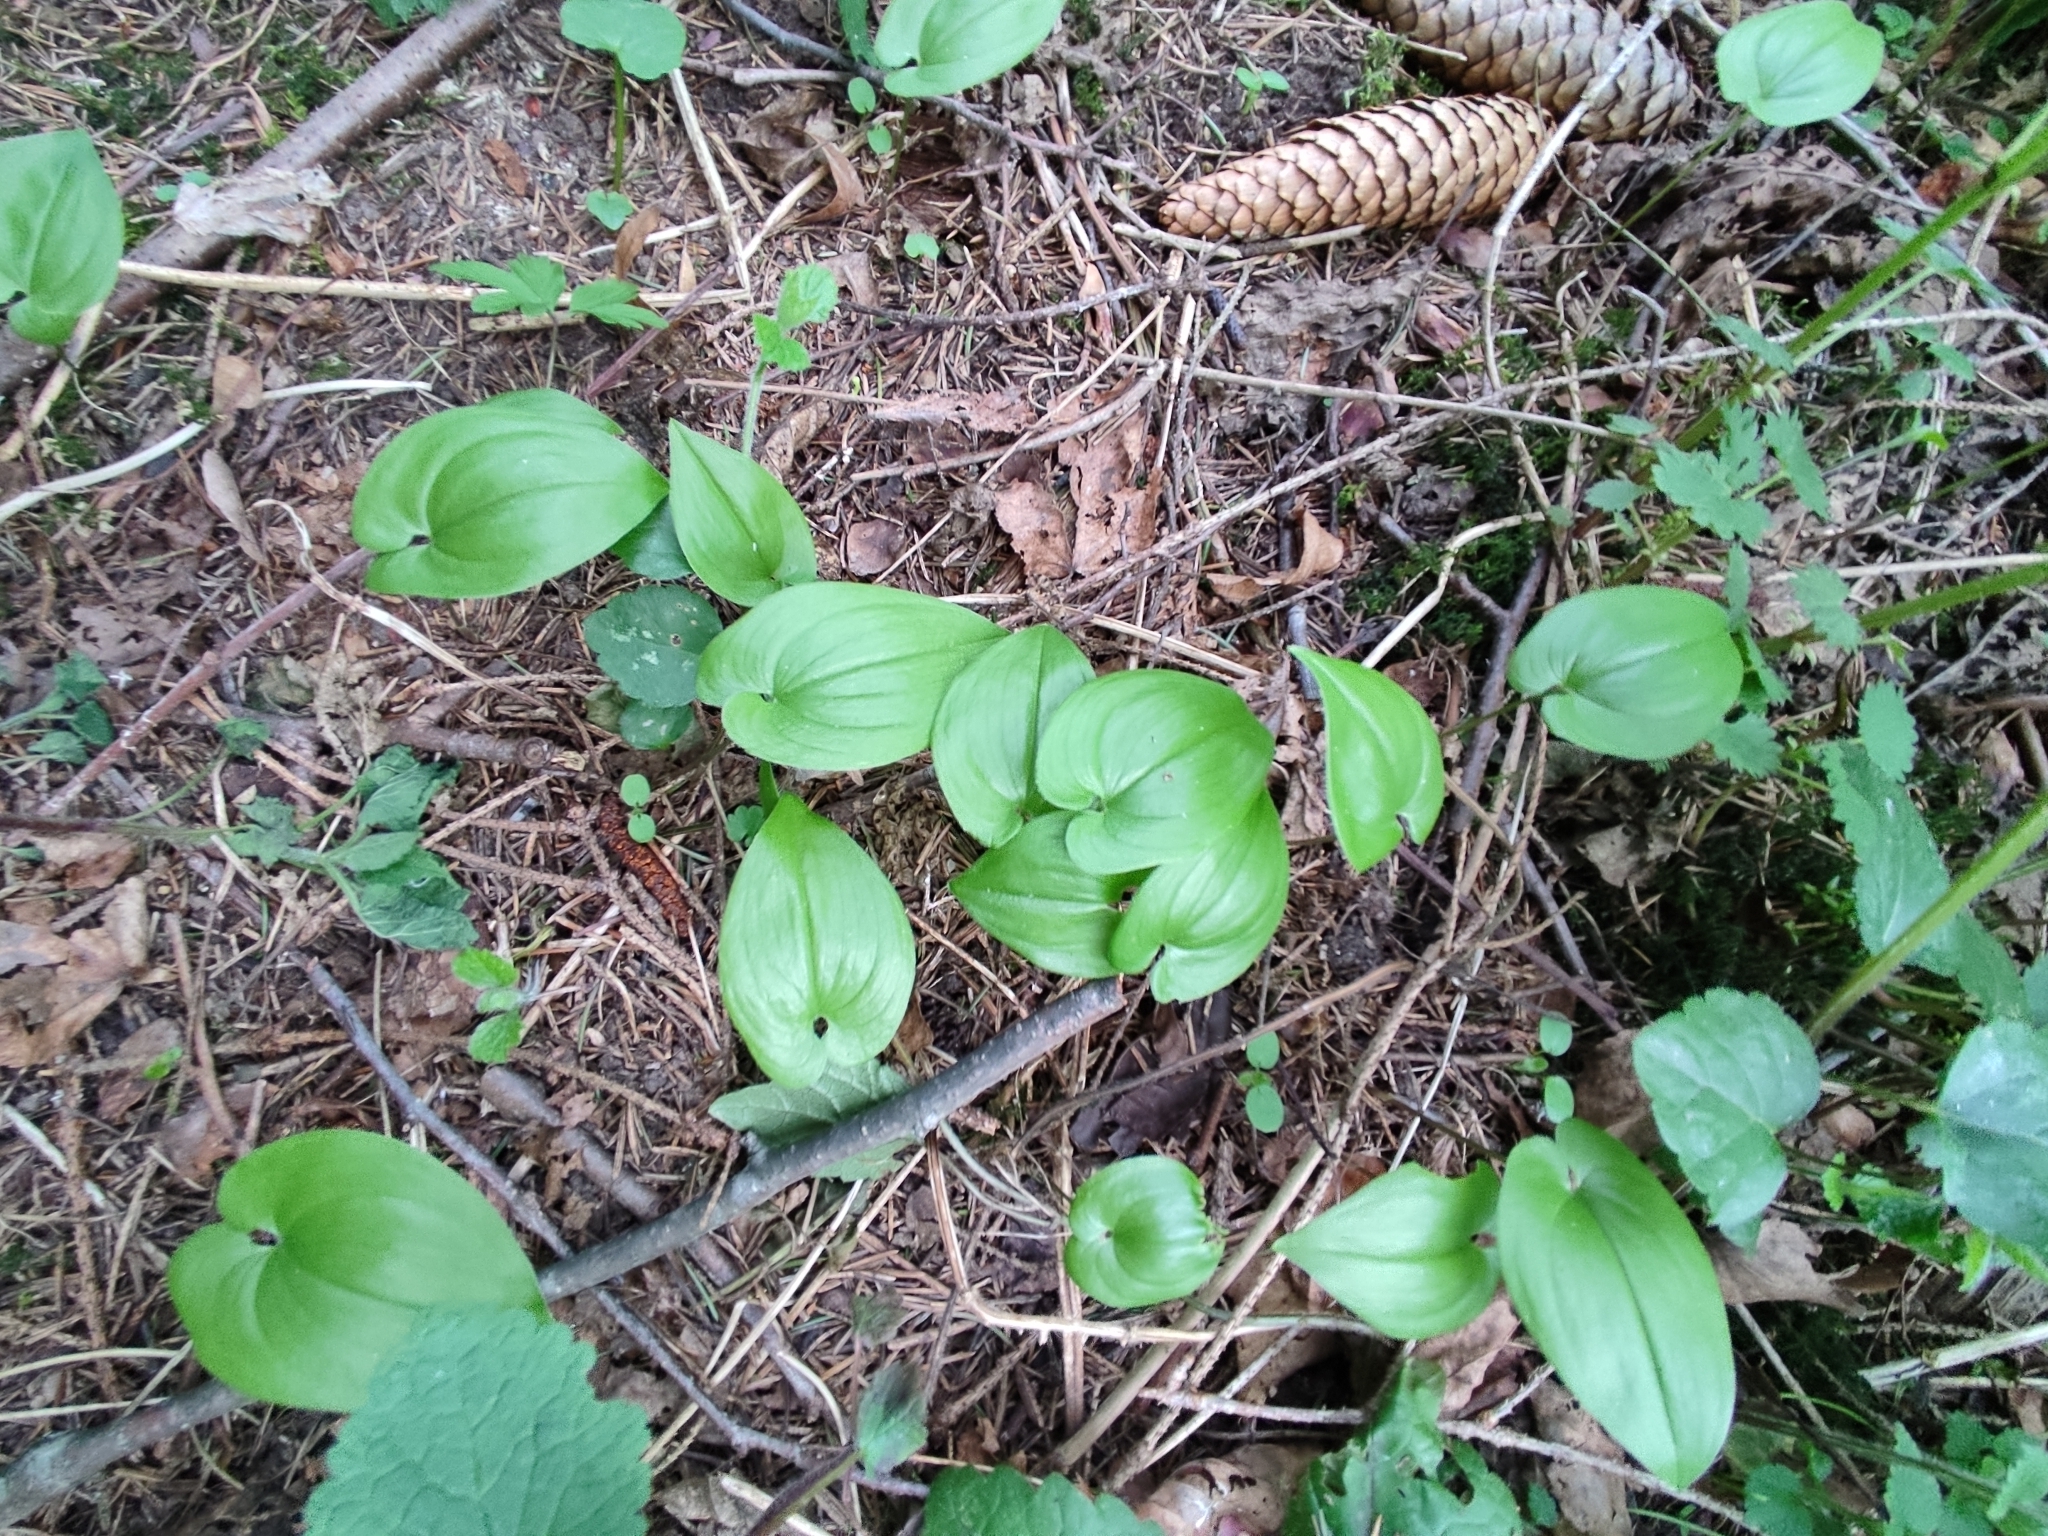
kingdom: Plantae
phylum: Tracheophyta
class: Liliopsida
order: Asparagales
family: Asparagaceae
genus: Maianthemum
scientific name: Maianthemum bifolium
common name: May lily
